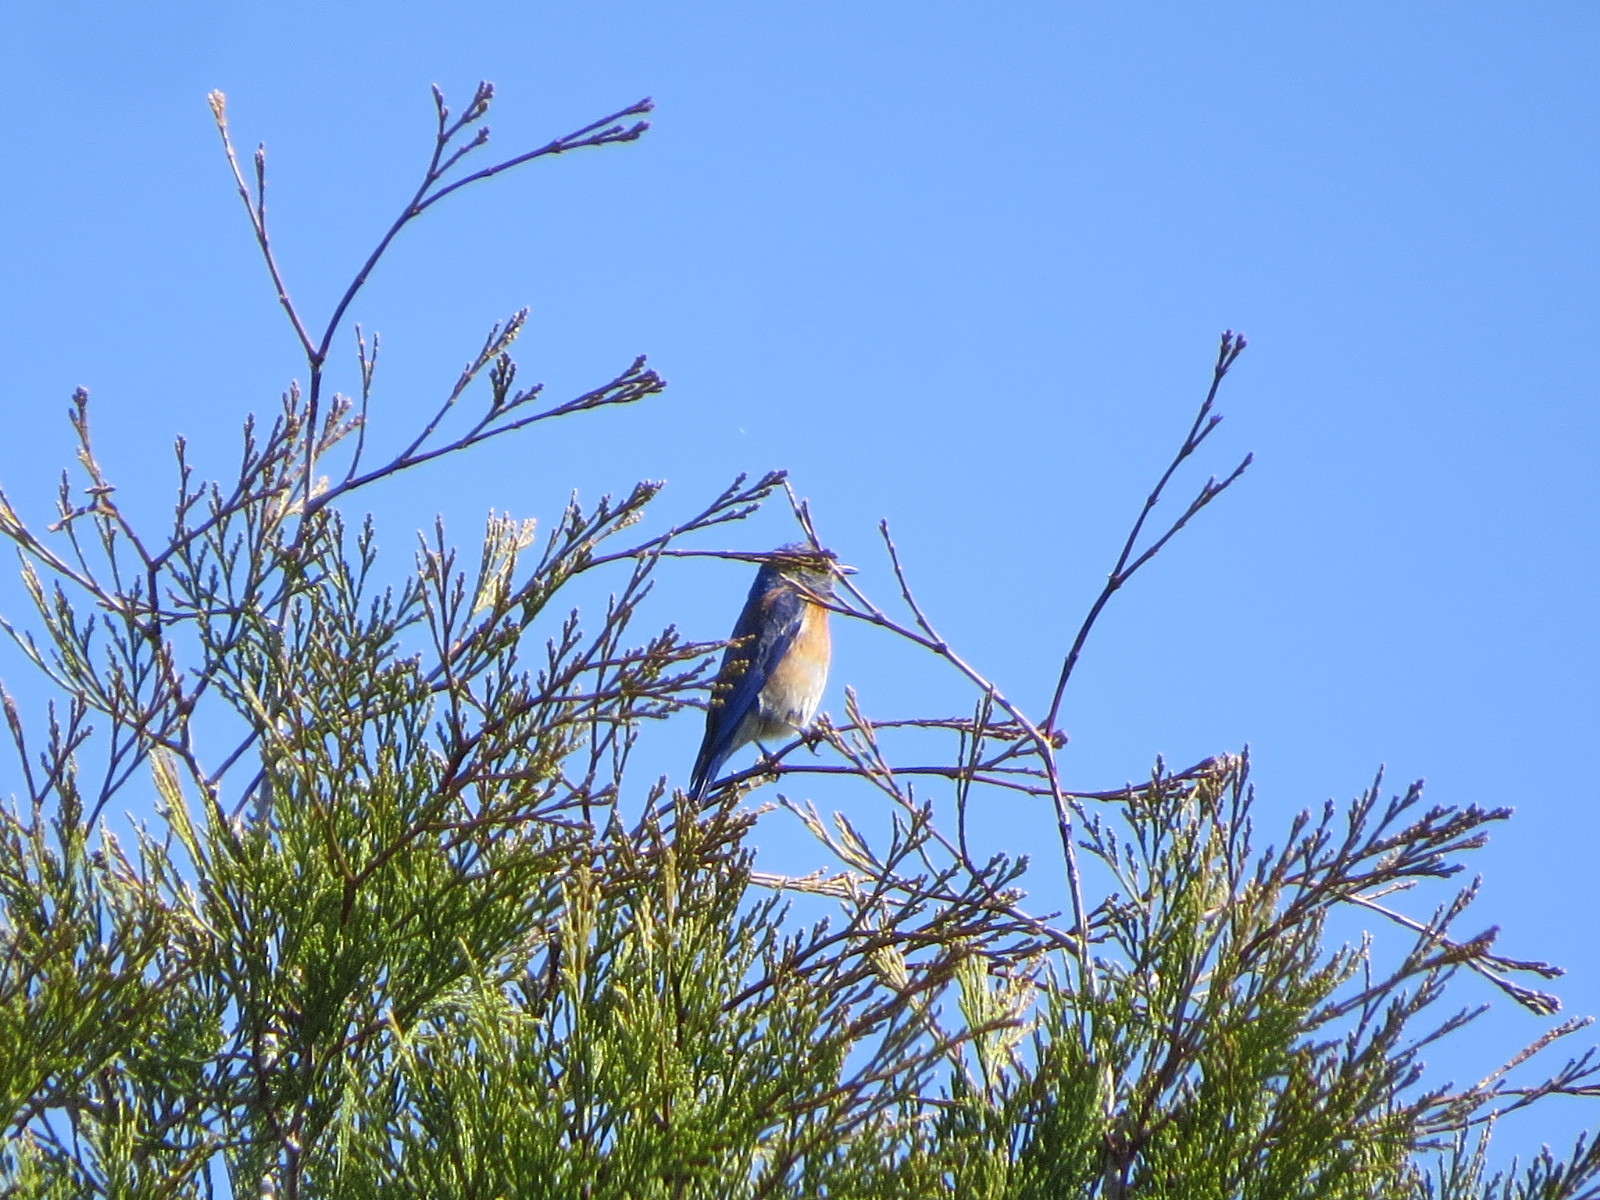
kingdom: Animalia
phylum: Chordata
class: Aves
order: Passeriformes
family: Turdidae
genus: Sialia
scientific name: Sialia mexicana
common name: Western bluebird
